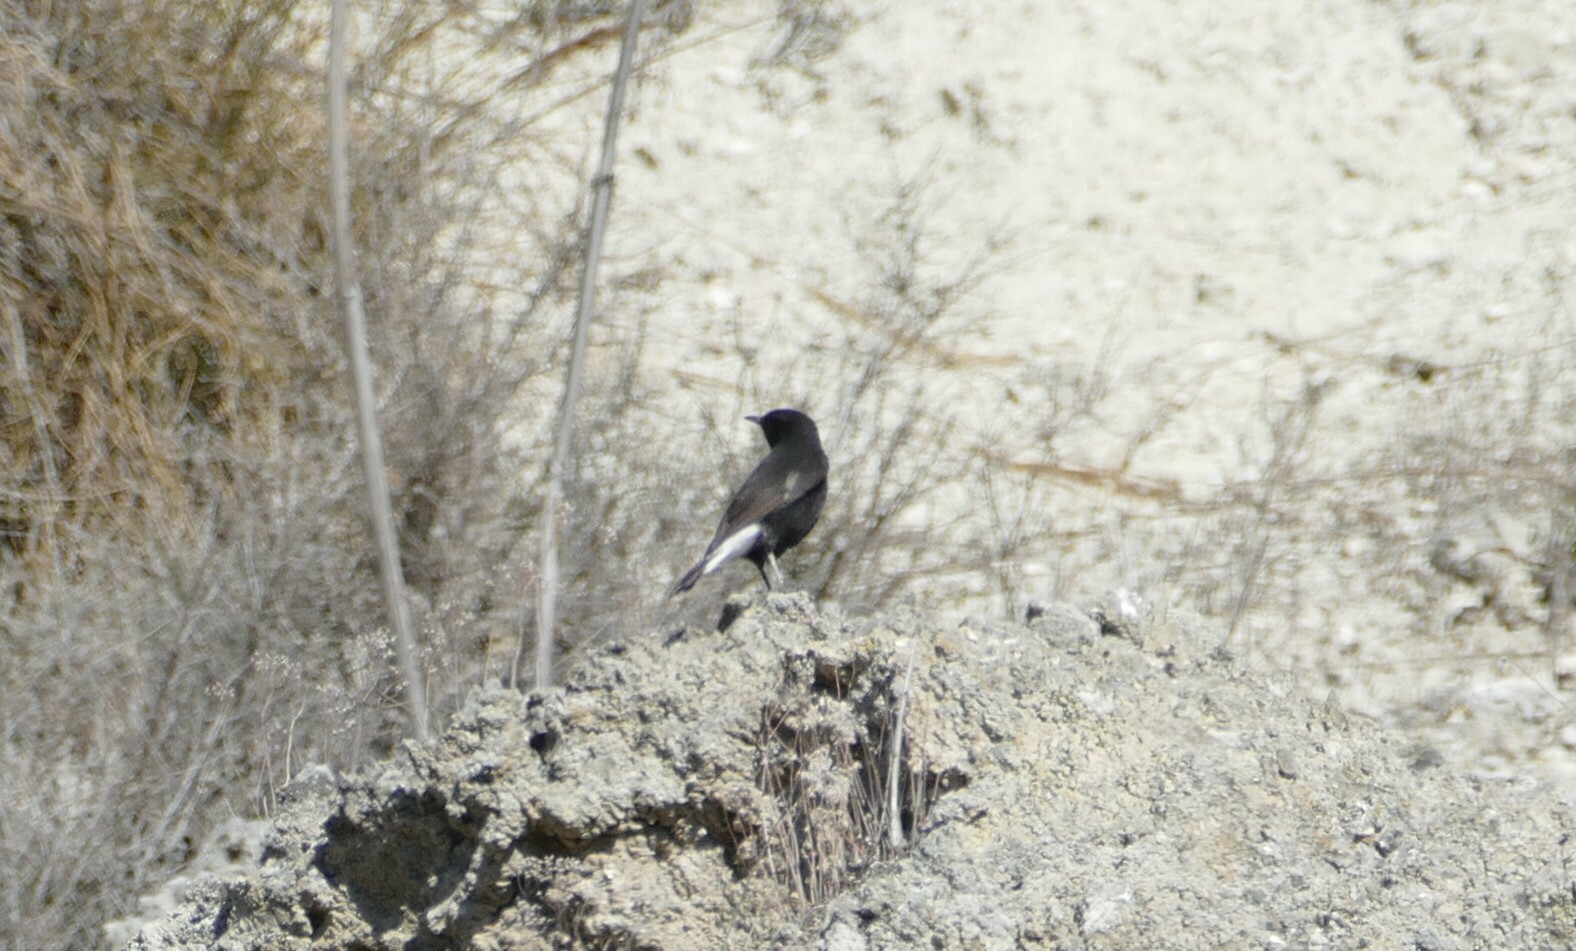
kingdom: Animalia
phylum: Chordata
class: Aves
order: Passeriformes
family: Muscicapidae
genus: Oenanthe
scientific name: Oenanthe leucura
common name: Black wheatear
